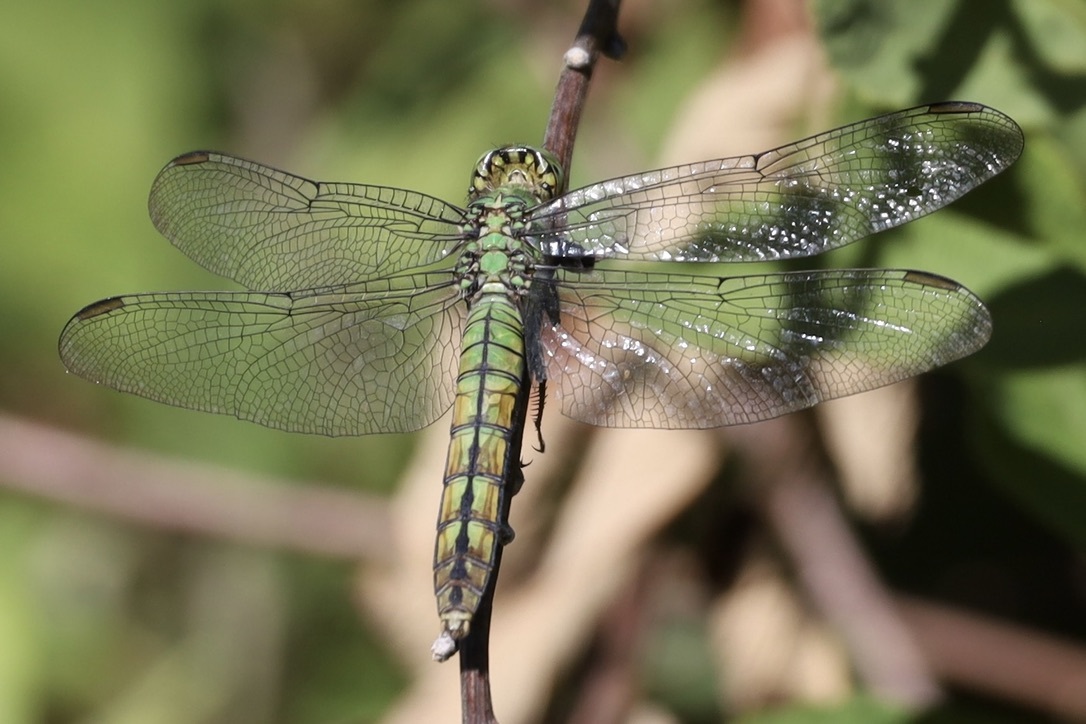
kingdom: Animalia
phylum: Arthropoda
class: Insecta
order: Odonata
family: Libellulidae
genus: Erythemis
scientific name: Erythemis collocata
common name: Western pondhawk
